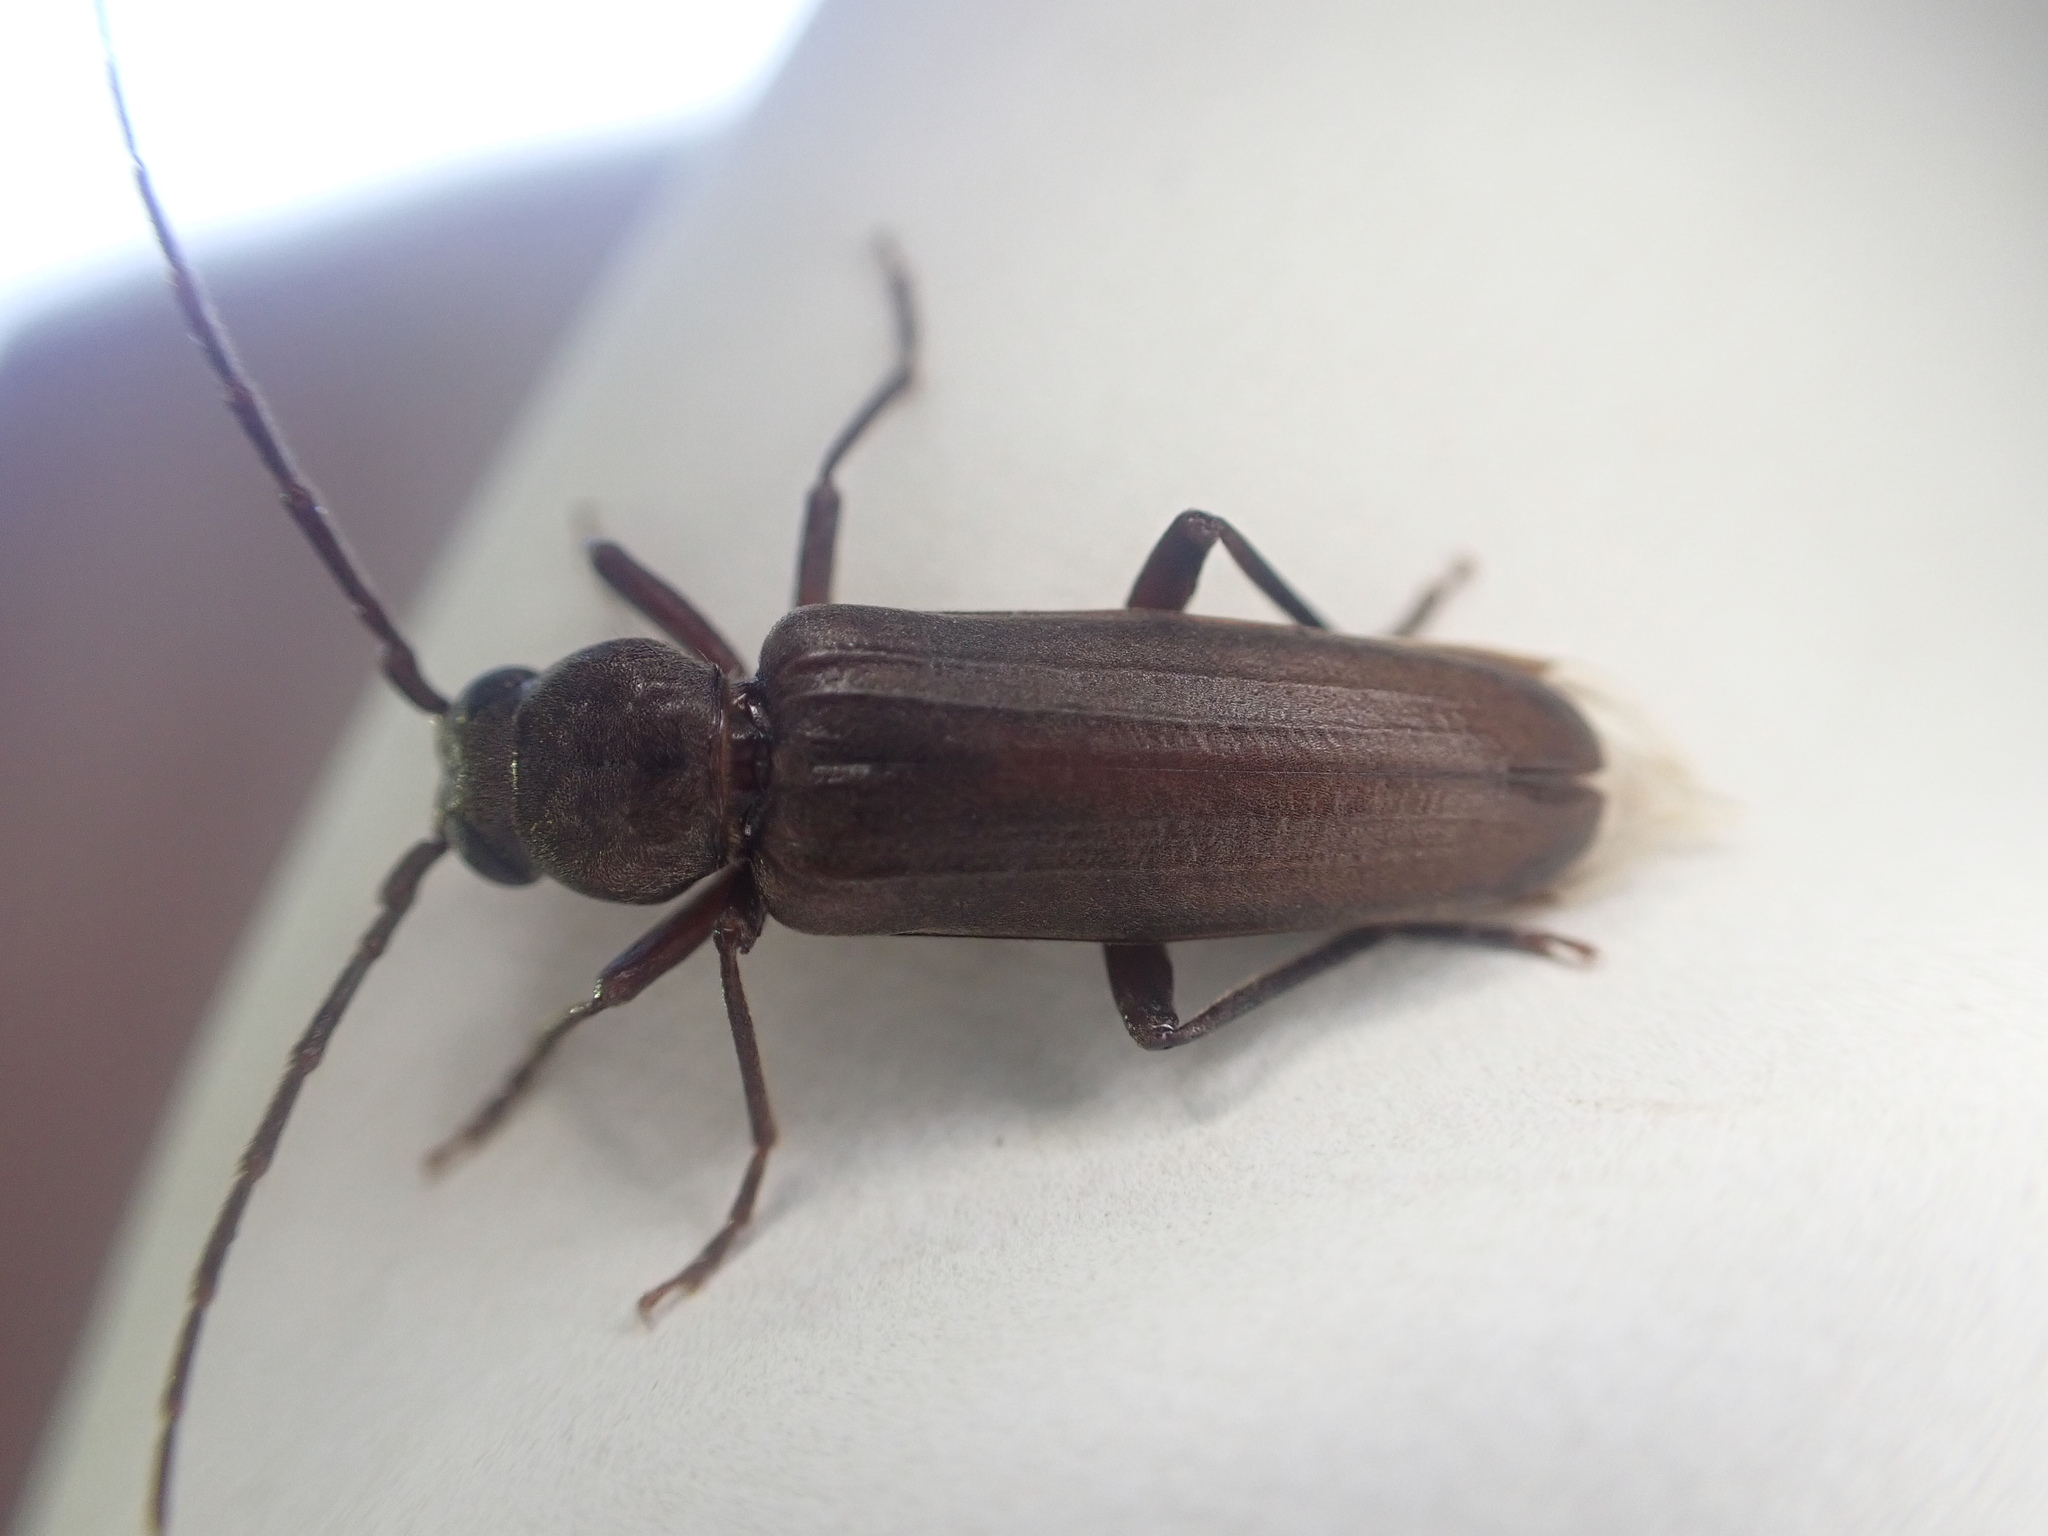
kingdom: Animalia
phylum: Arthropoda
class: Insecta
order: Coleoptera
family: Cerambycidae
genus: Arhopalus
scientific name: Arhopalus ferus
